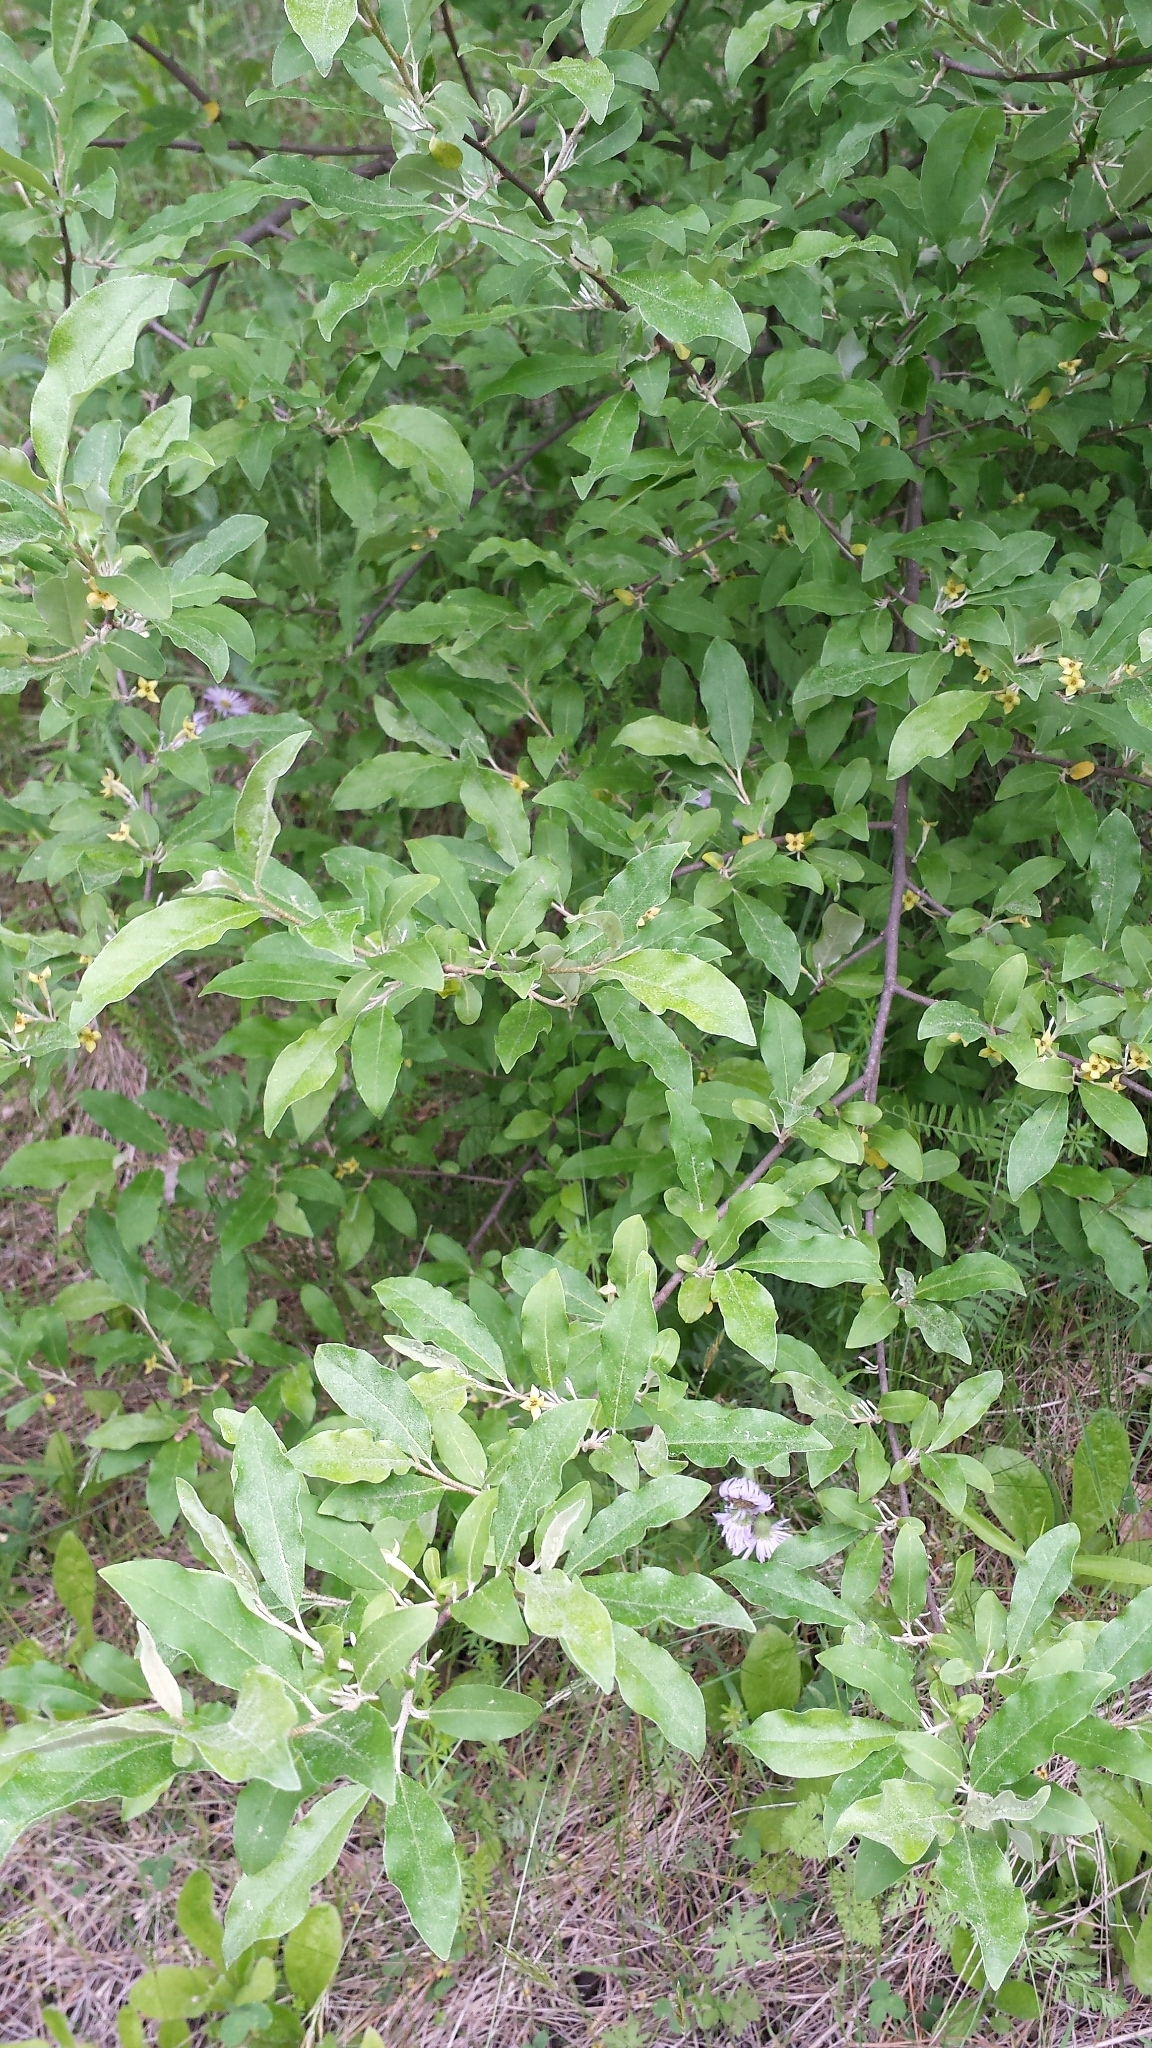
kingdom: Plantae
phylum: Tracheophyta
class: Magnoliopsida
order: Rosales
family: Elaeagnaceae
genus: Elaeagnus
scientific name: Elaeagnus umbellata
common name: Autumn olive
